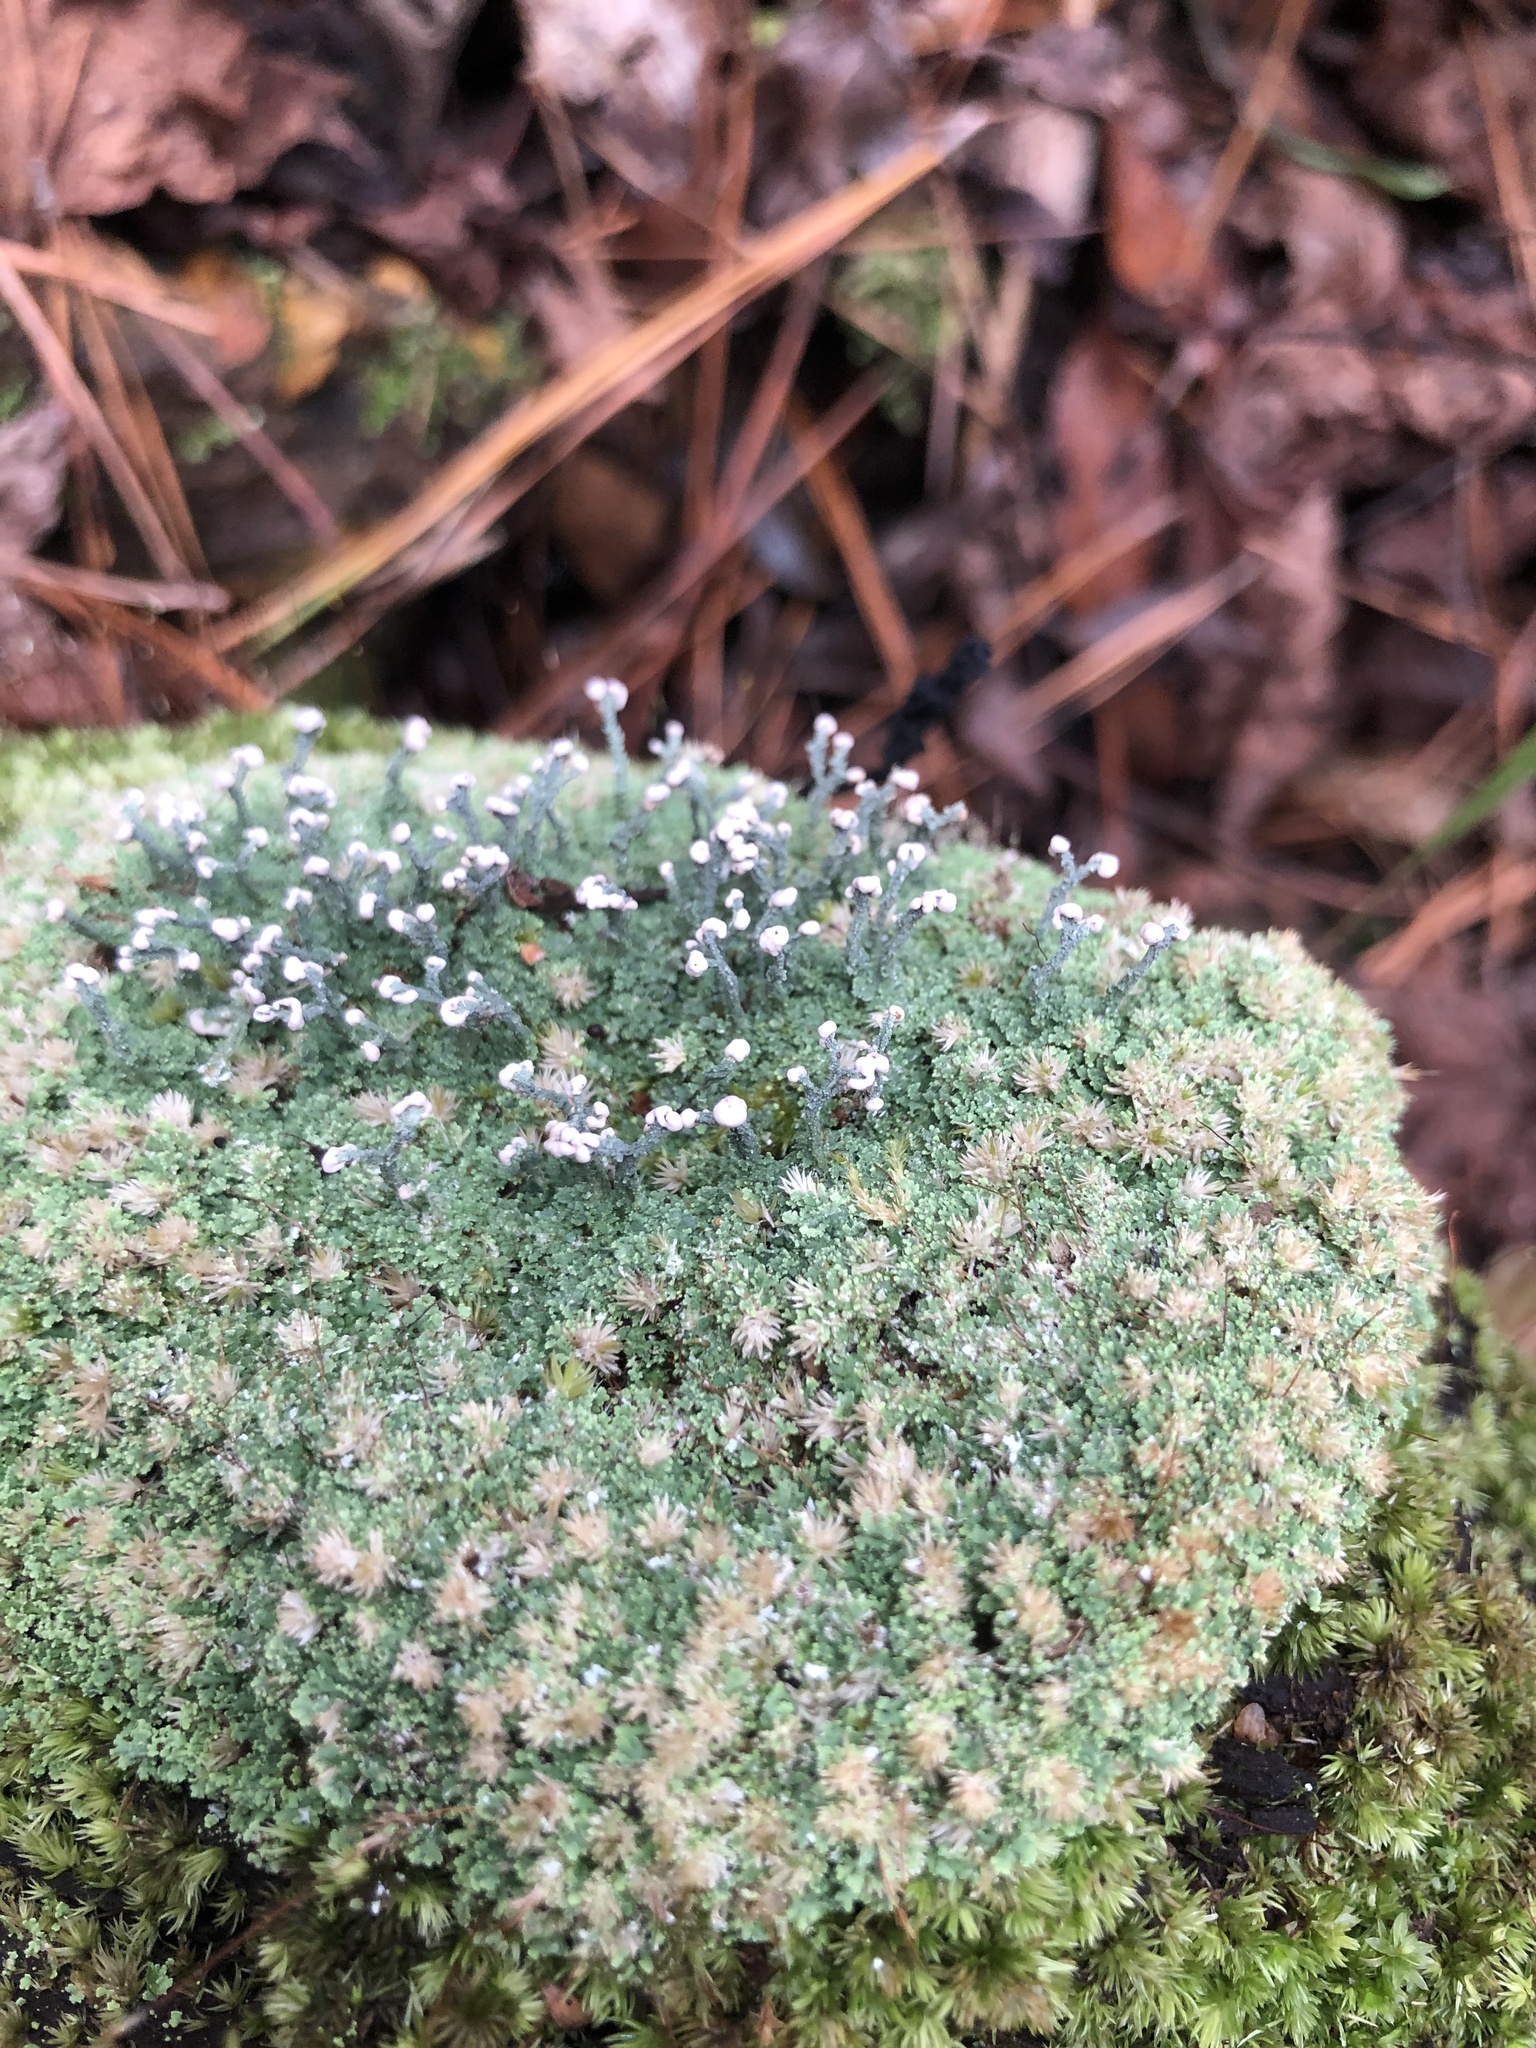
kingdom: Fungi
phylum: Ascomycota
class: Lecanoromycetes
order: Lecanorales
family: Cladoniaceae
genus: Cladonia
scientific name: Cladonia peziziformis
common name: Cup lichen
